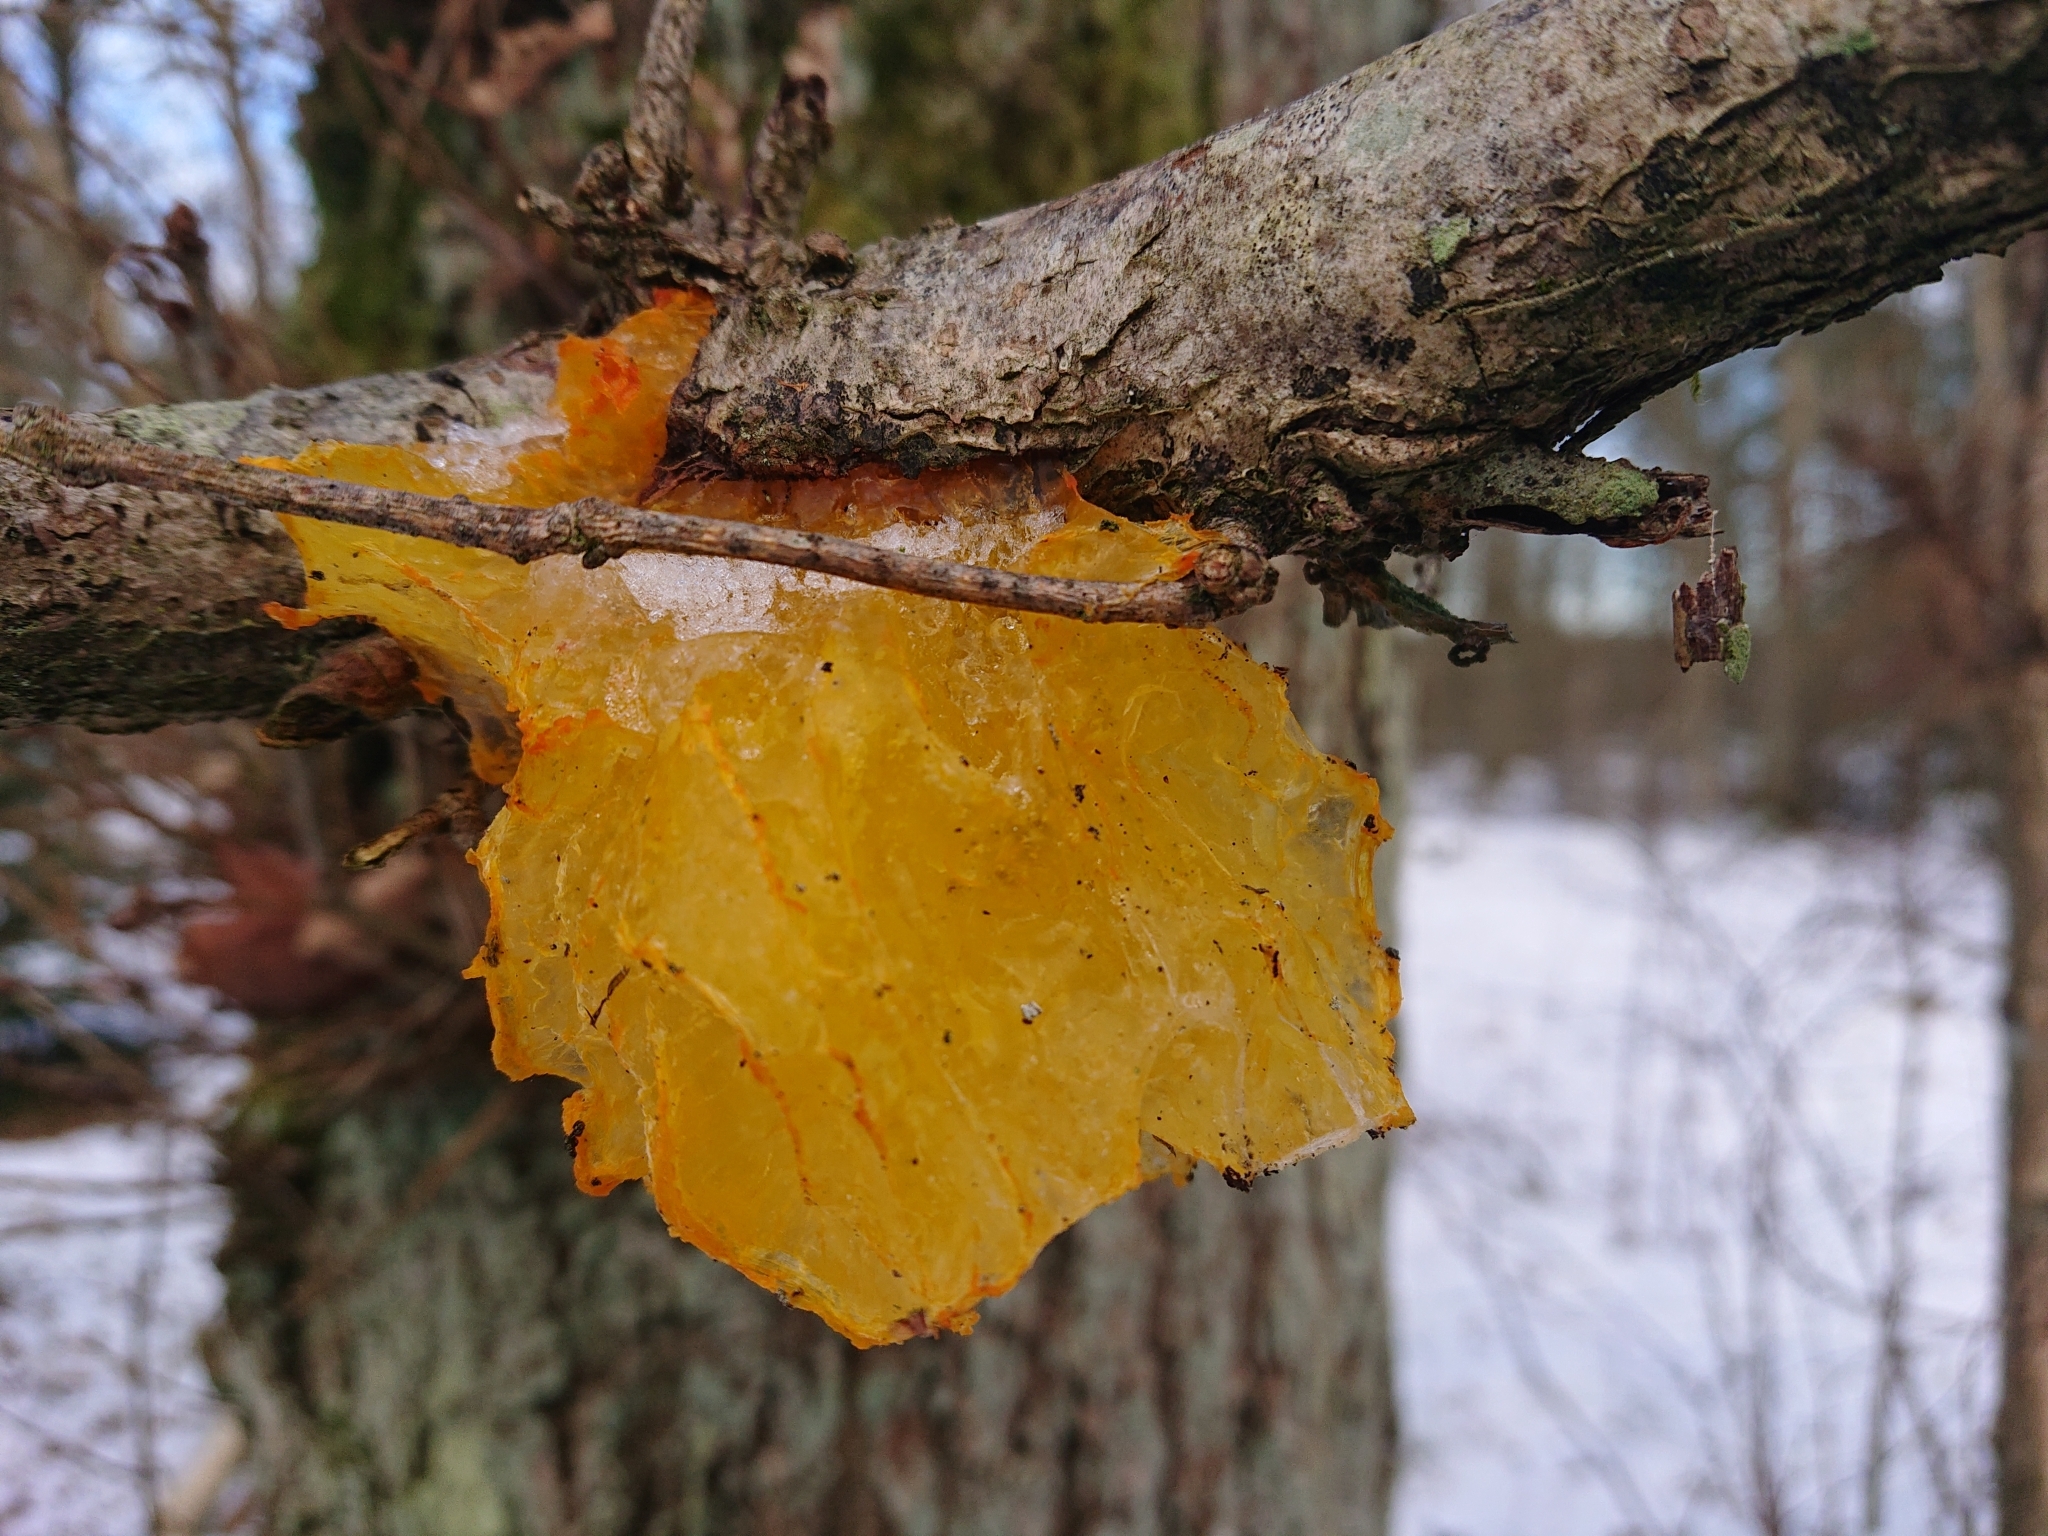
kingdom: Fungi
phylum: Basidiomycota
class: Tremellomycetes
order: Tremellales
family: Tremellaceae
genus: Tremella
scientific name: Tremella mesenterica
